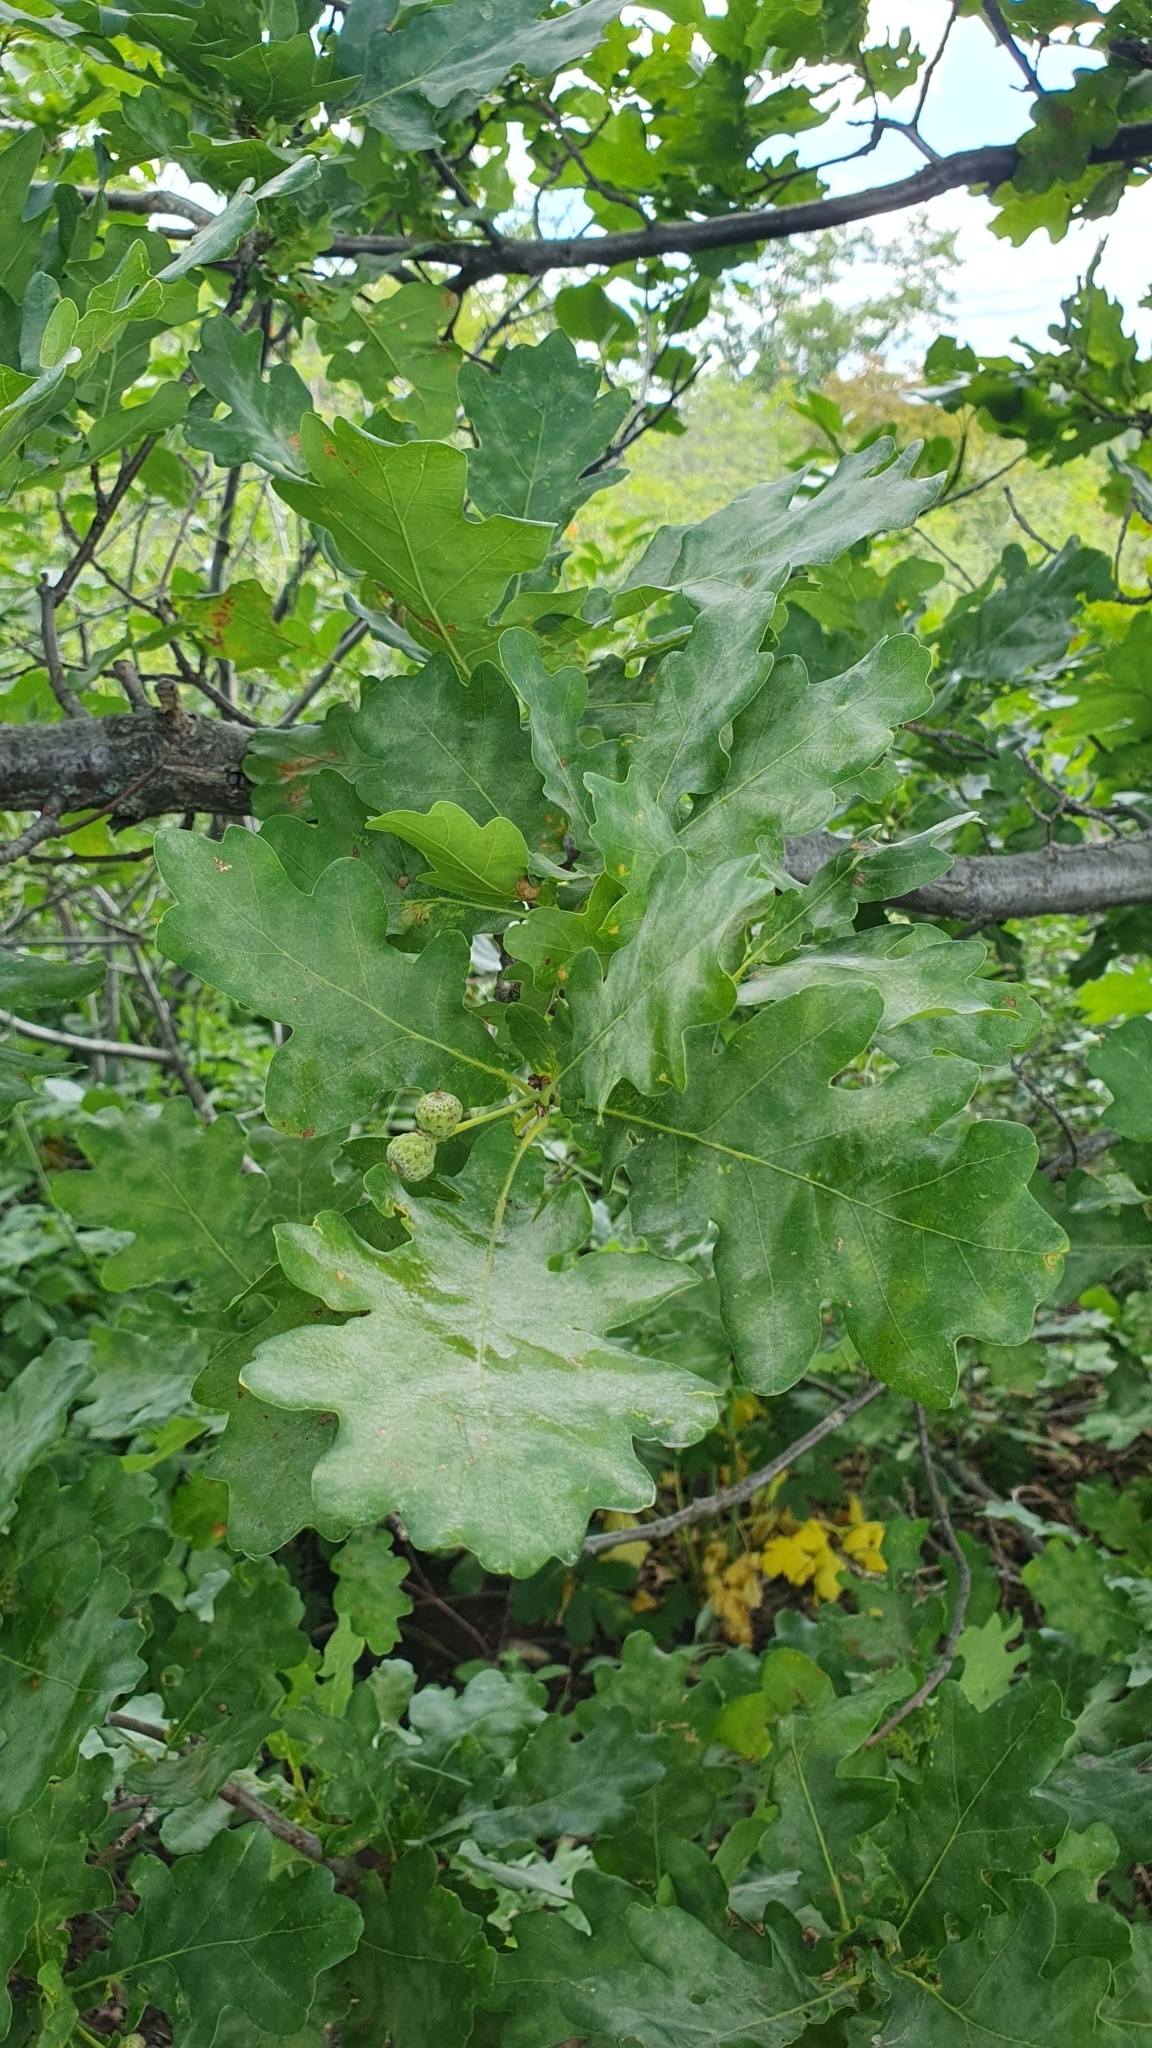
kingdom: Plantae
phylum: Tracheophyta
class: Magnoliopsida
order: Fagales
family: Fagaceae
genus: Quercus
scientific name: Quercus robur
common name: Pedunculate oak
